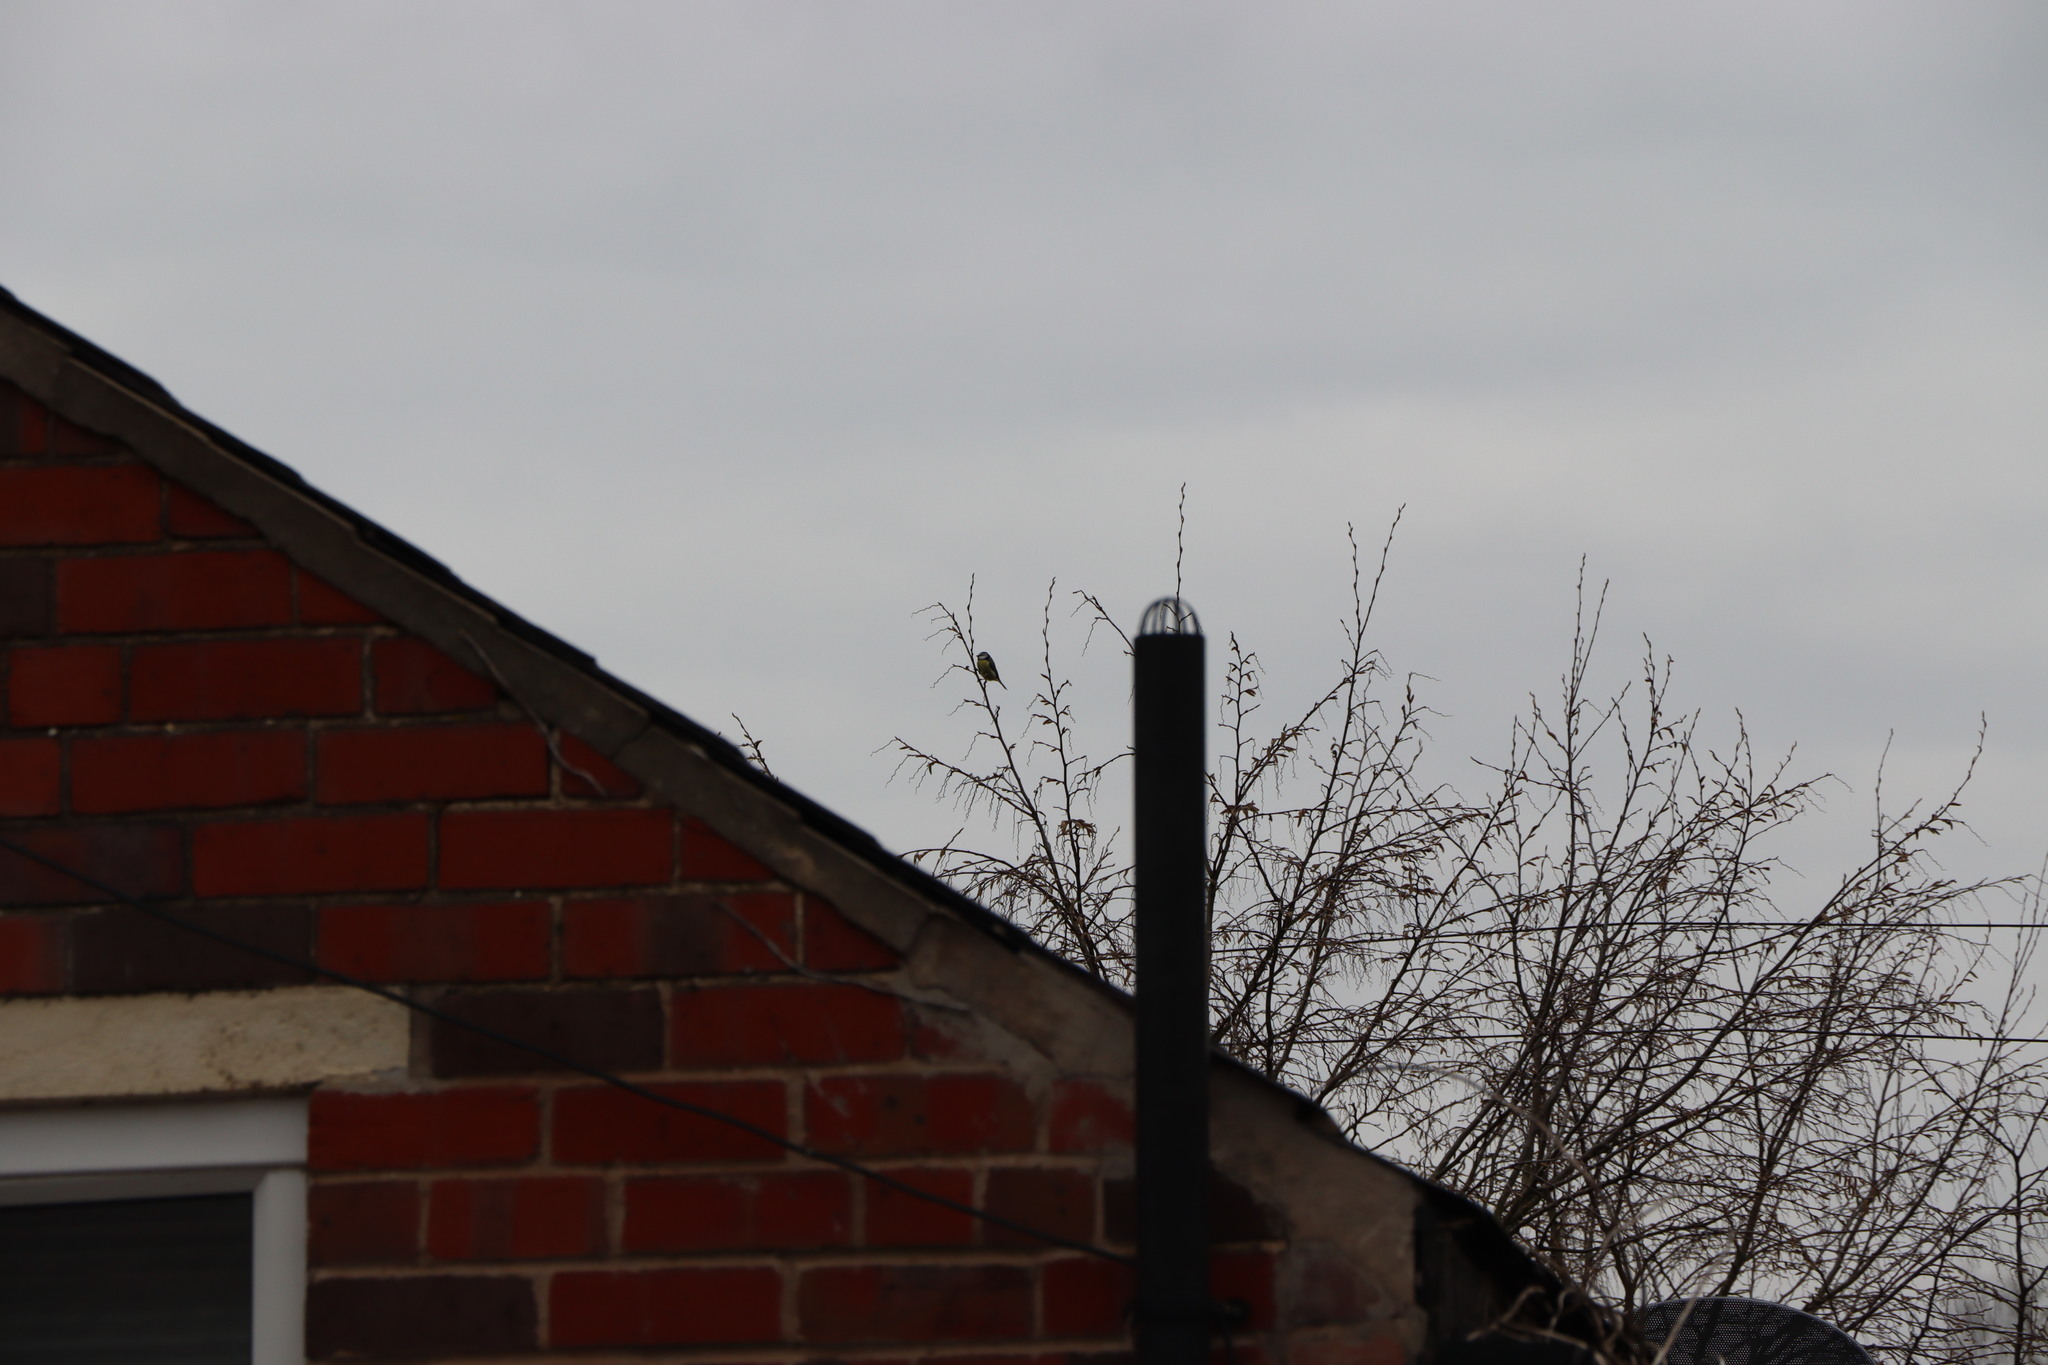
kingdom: Animalia
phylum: Chordata
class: Aves
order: Passeriformes
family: Paridae
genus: Cyanistes
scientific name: Cyanistes caeruleus
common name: Eurasian blue tit
